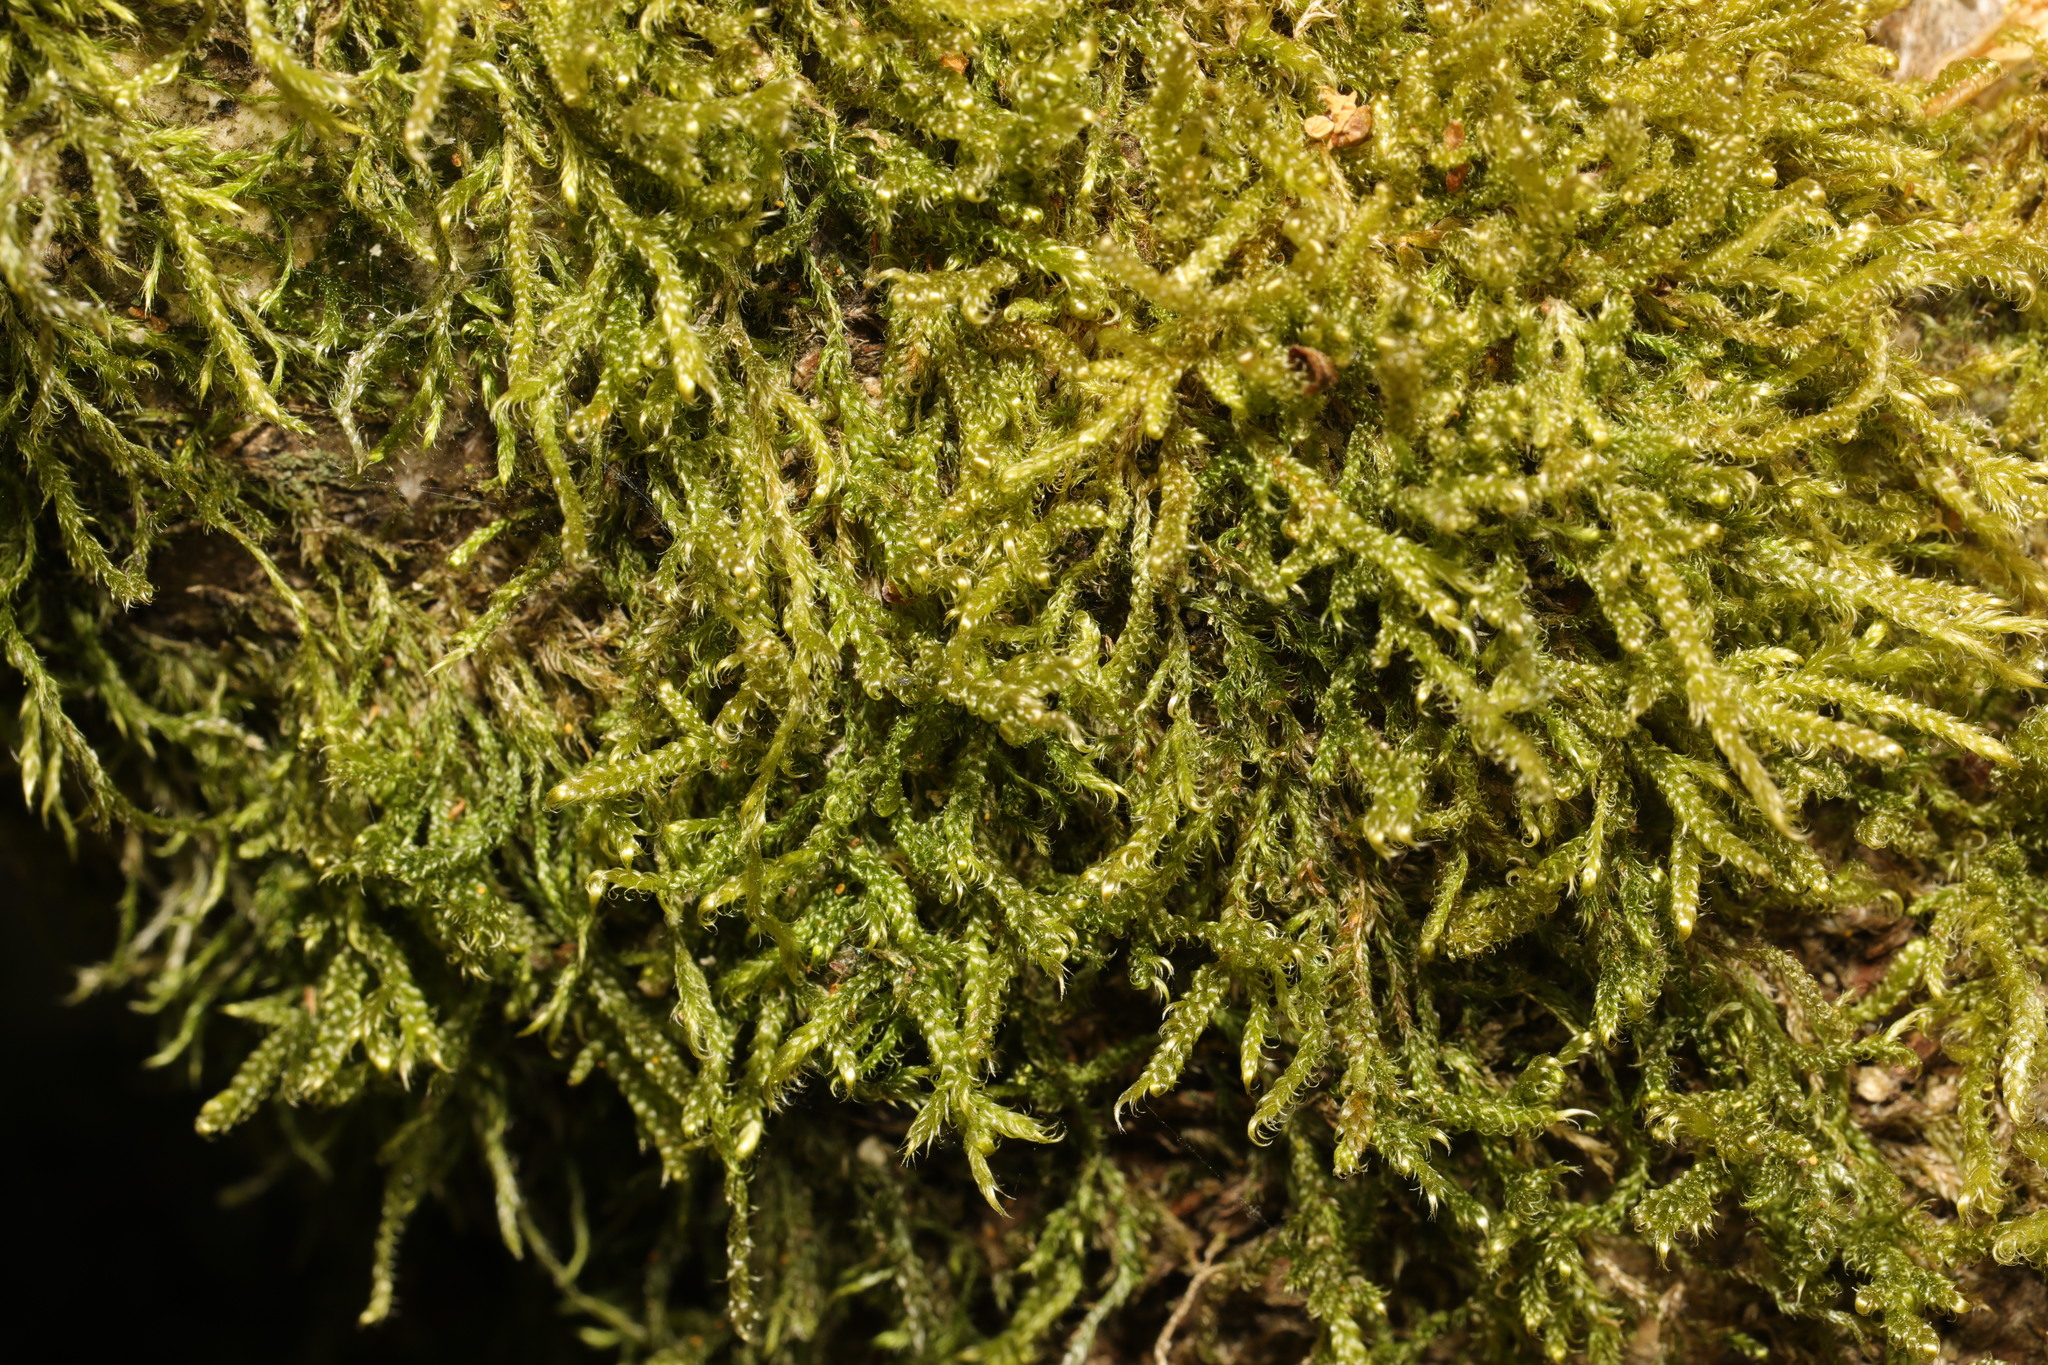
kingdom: Plantae
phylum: Bryophyta
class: Bryopsida
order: Hypnales
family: Hypnaceae
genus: Hypnum
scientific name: Hypnum cupressiforme
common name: Cypress-leaved plait-moss
